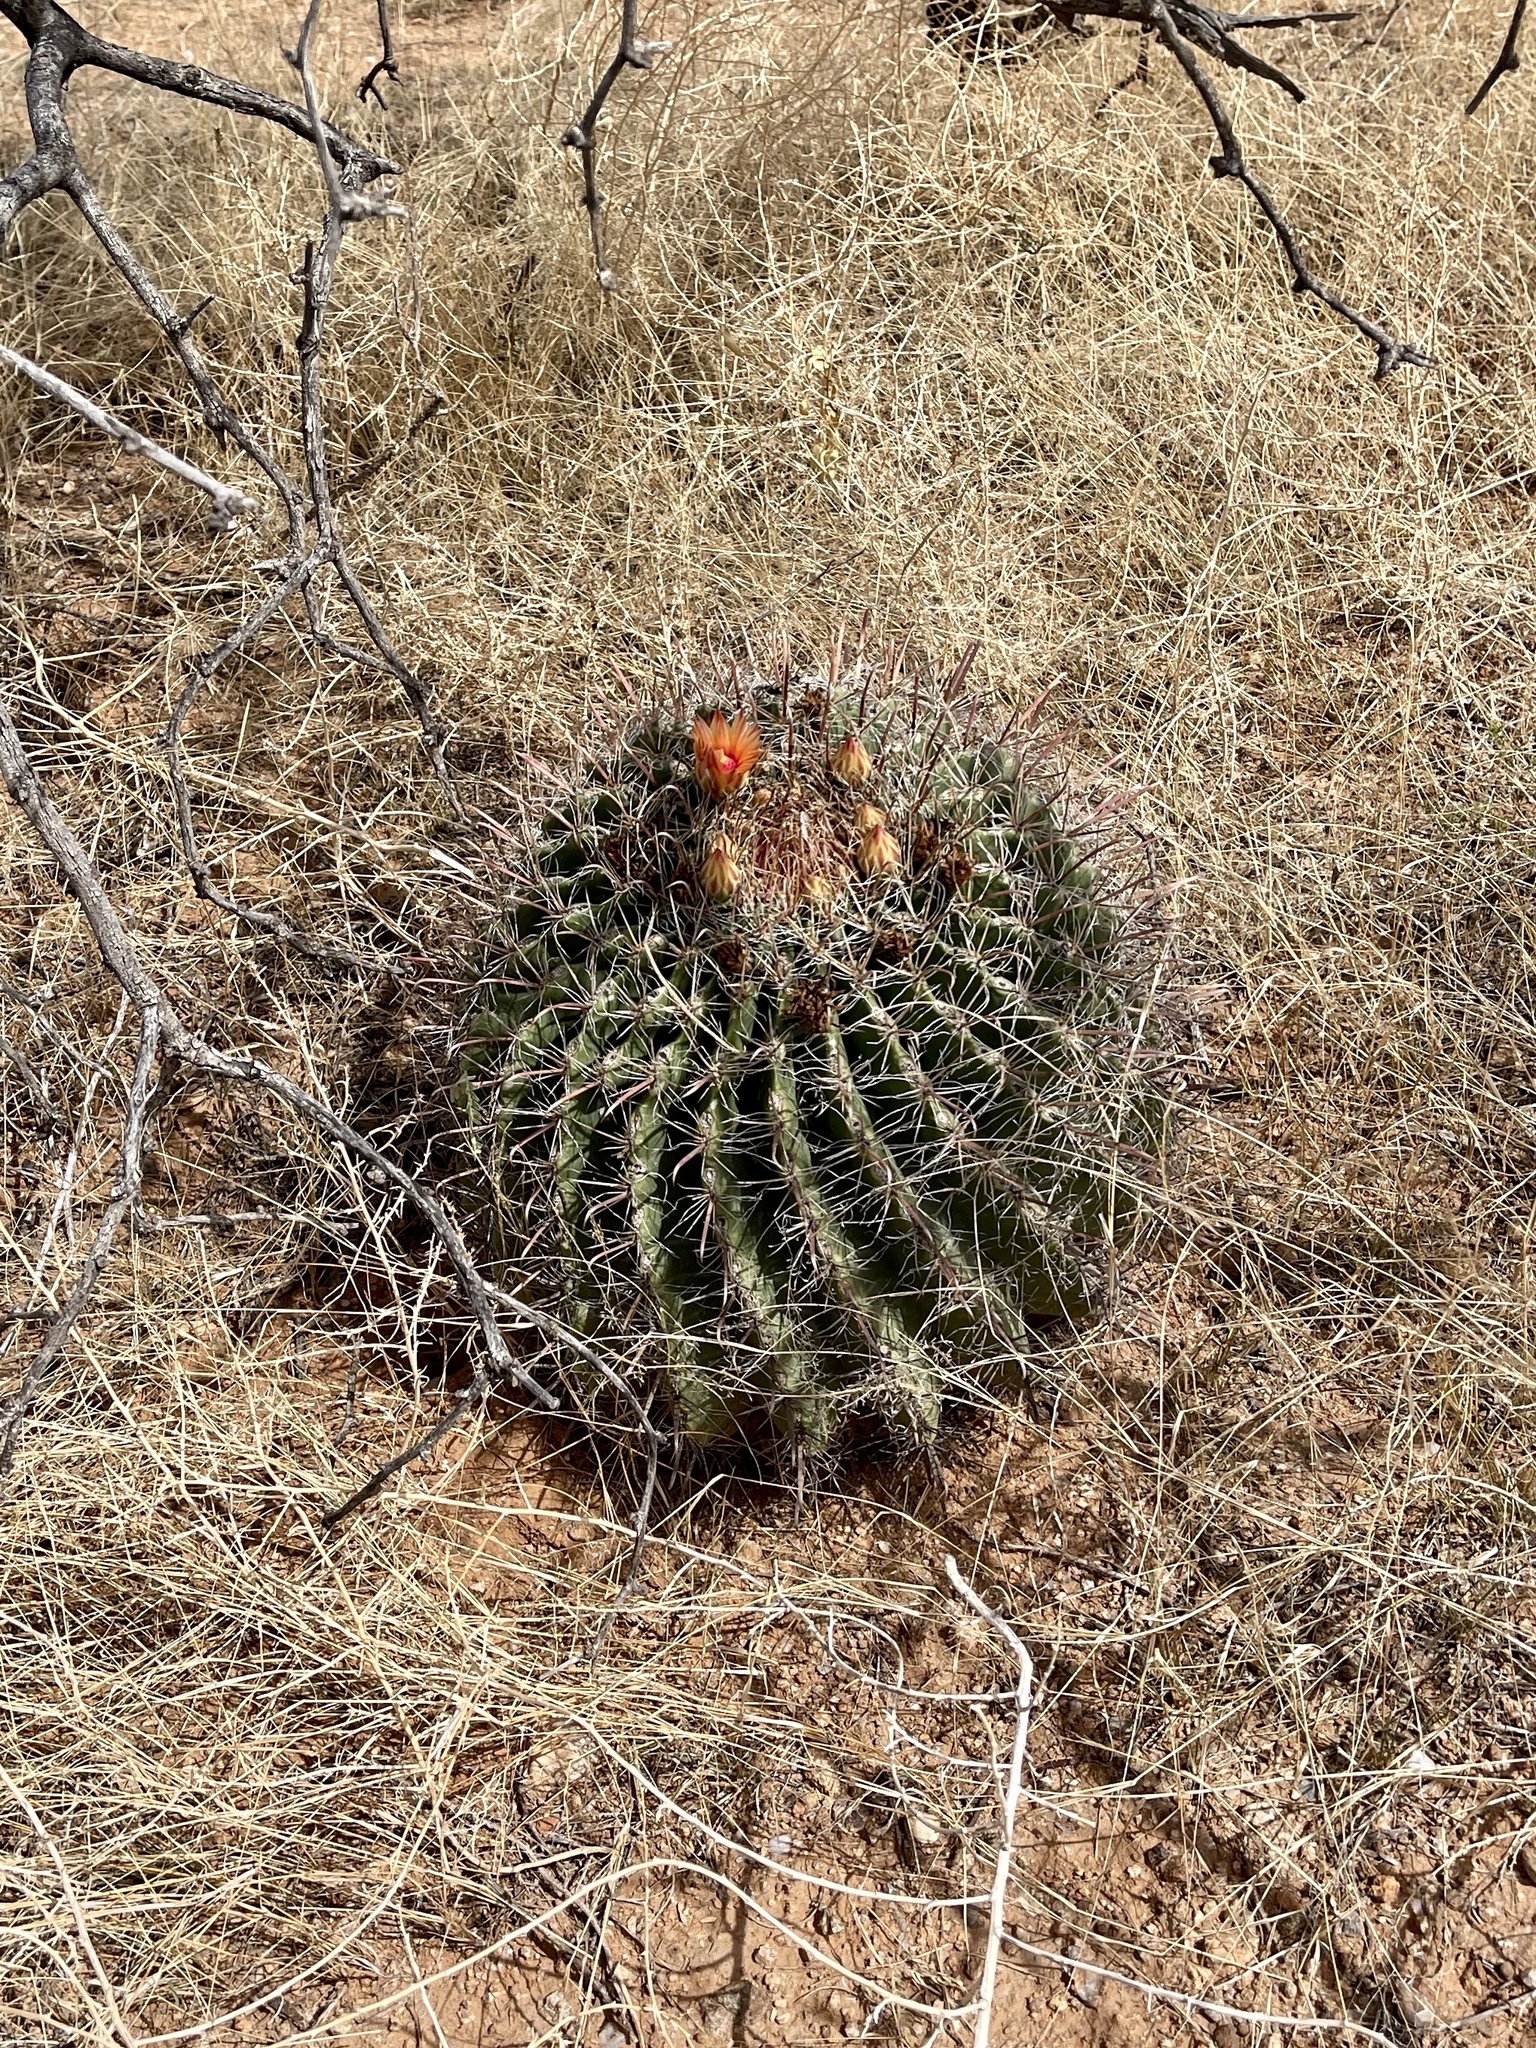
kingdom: Plantae
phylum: Tracheophyta
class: Magnoliopsida
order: Caryophyllales
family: Cactaceae
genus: Ferocactus
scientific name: Ferocactus wislizeni
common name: Candy barrel cactus
